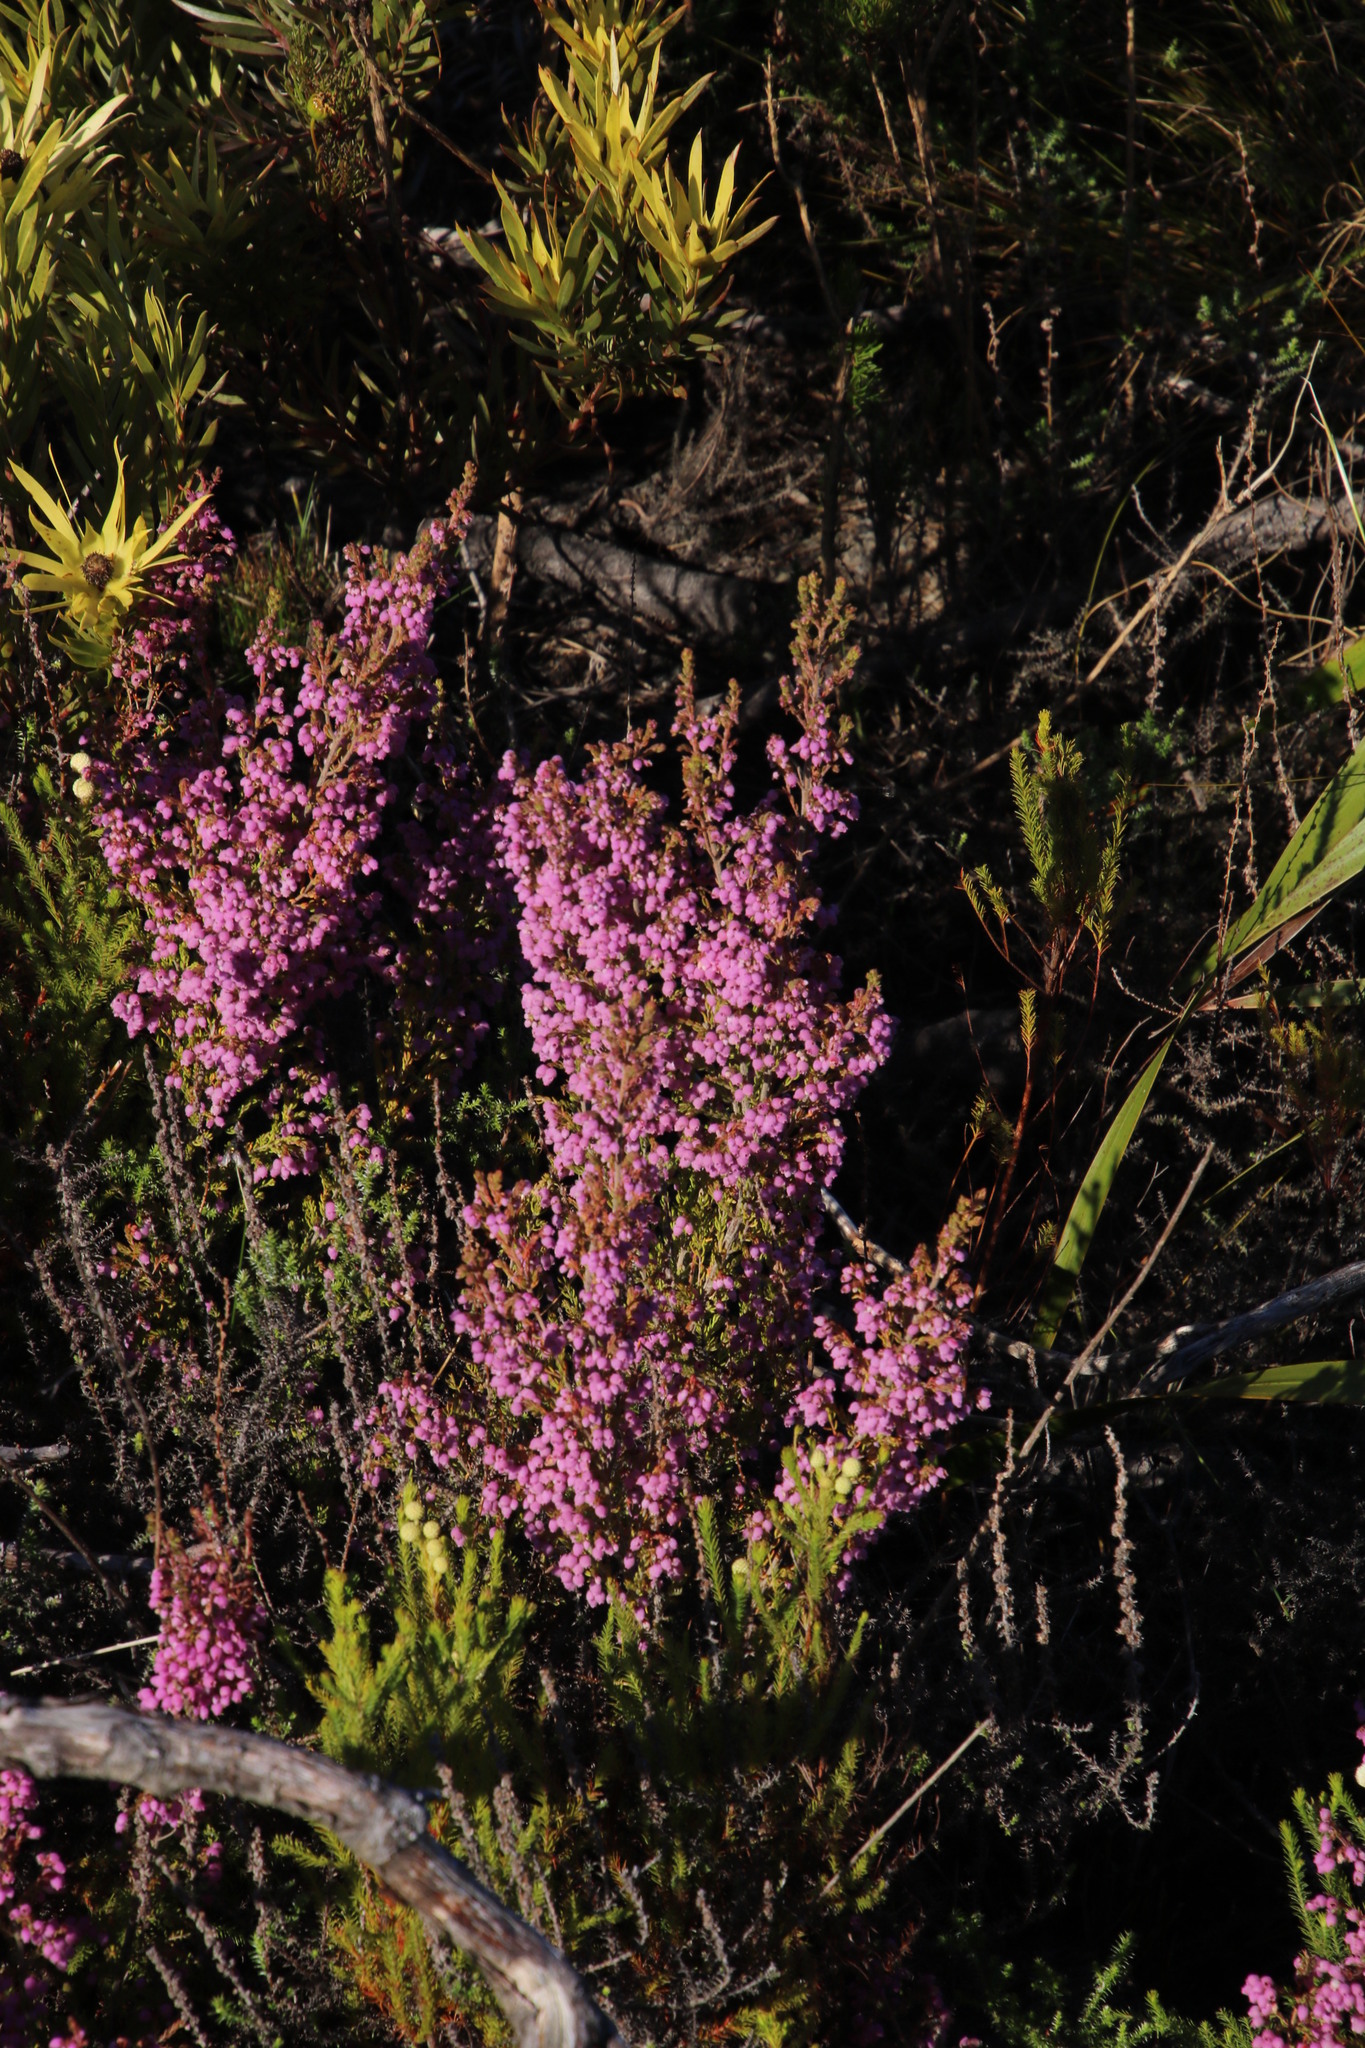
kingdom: Plantae
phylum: Tracheophyta
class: Magnoliopsida
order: Ericales
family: Ericaceae
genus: Erica
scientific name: Erica hirtiflora
